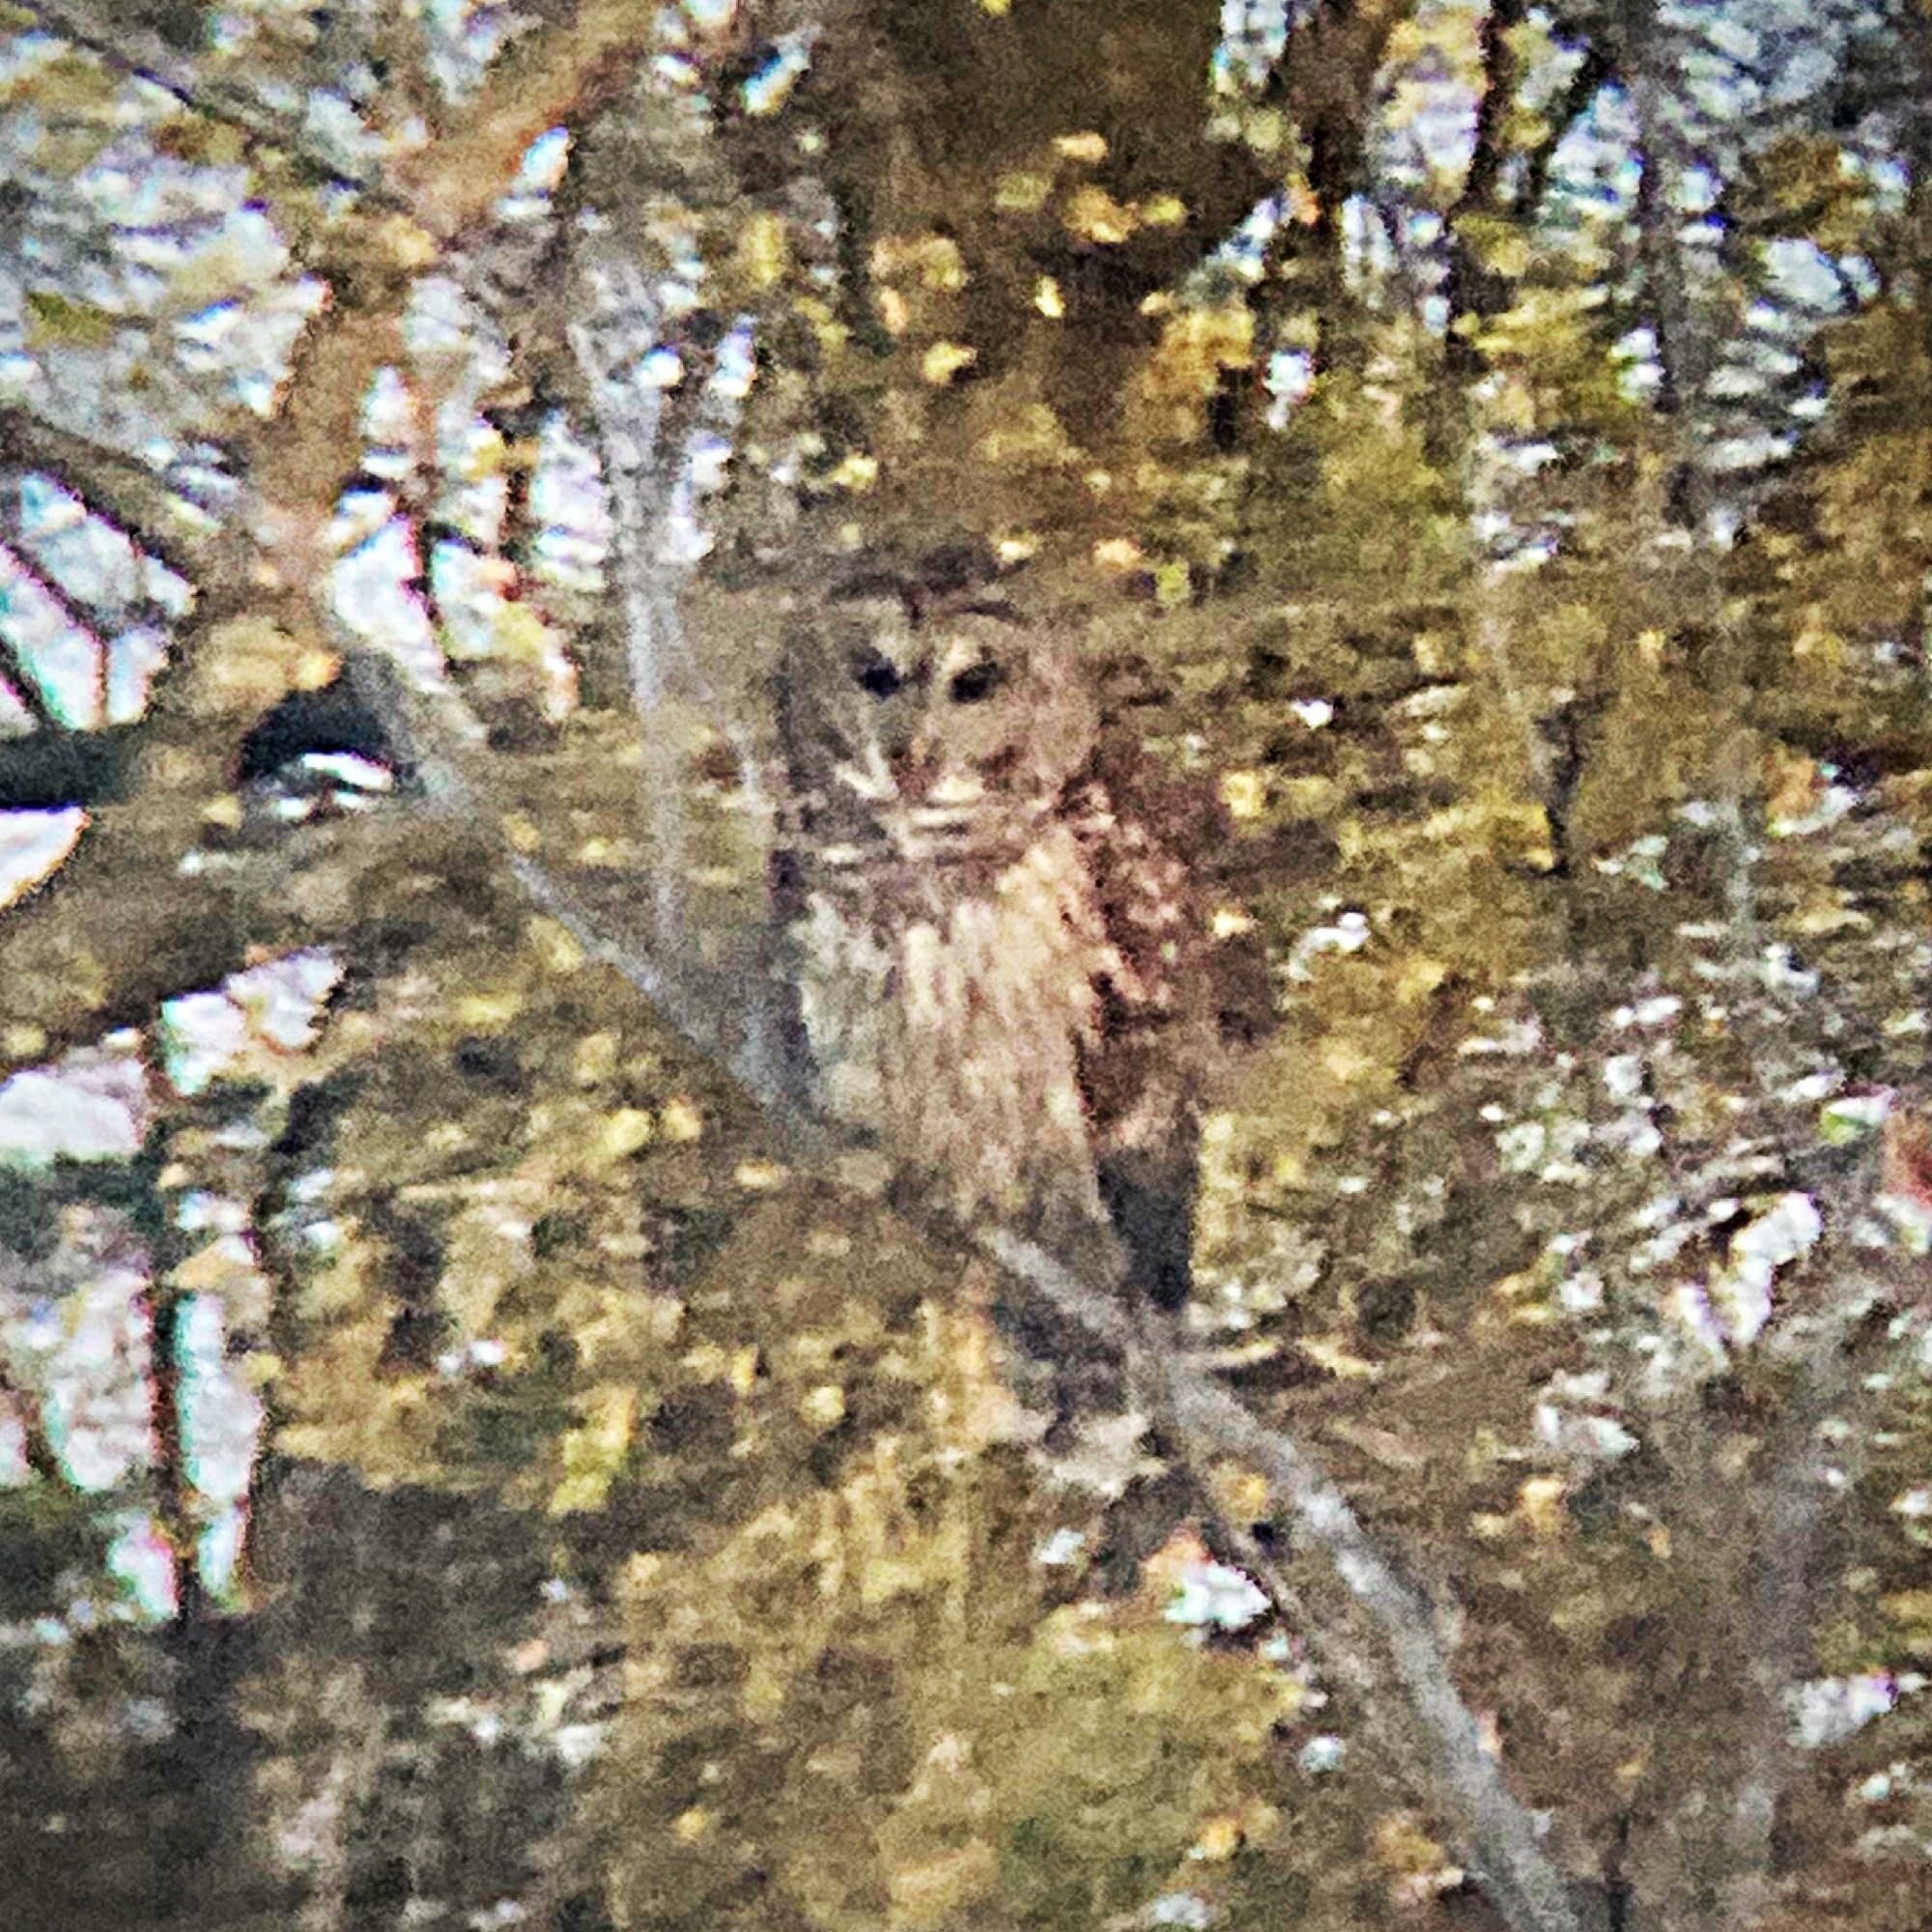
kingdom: Animalia
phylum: Chordata
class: Aves
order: Strigiformes
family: Strigidae
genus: Strix
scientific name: Strix varia
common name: Barred owl
